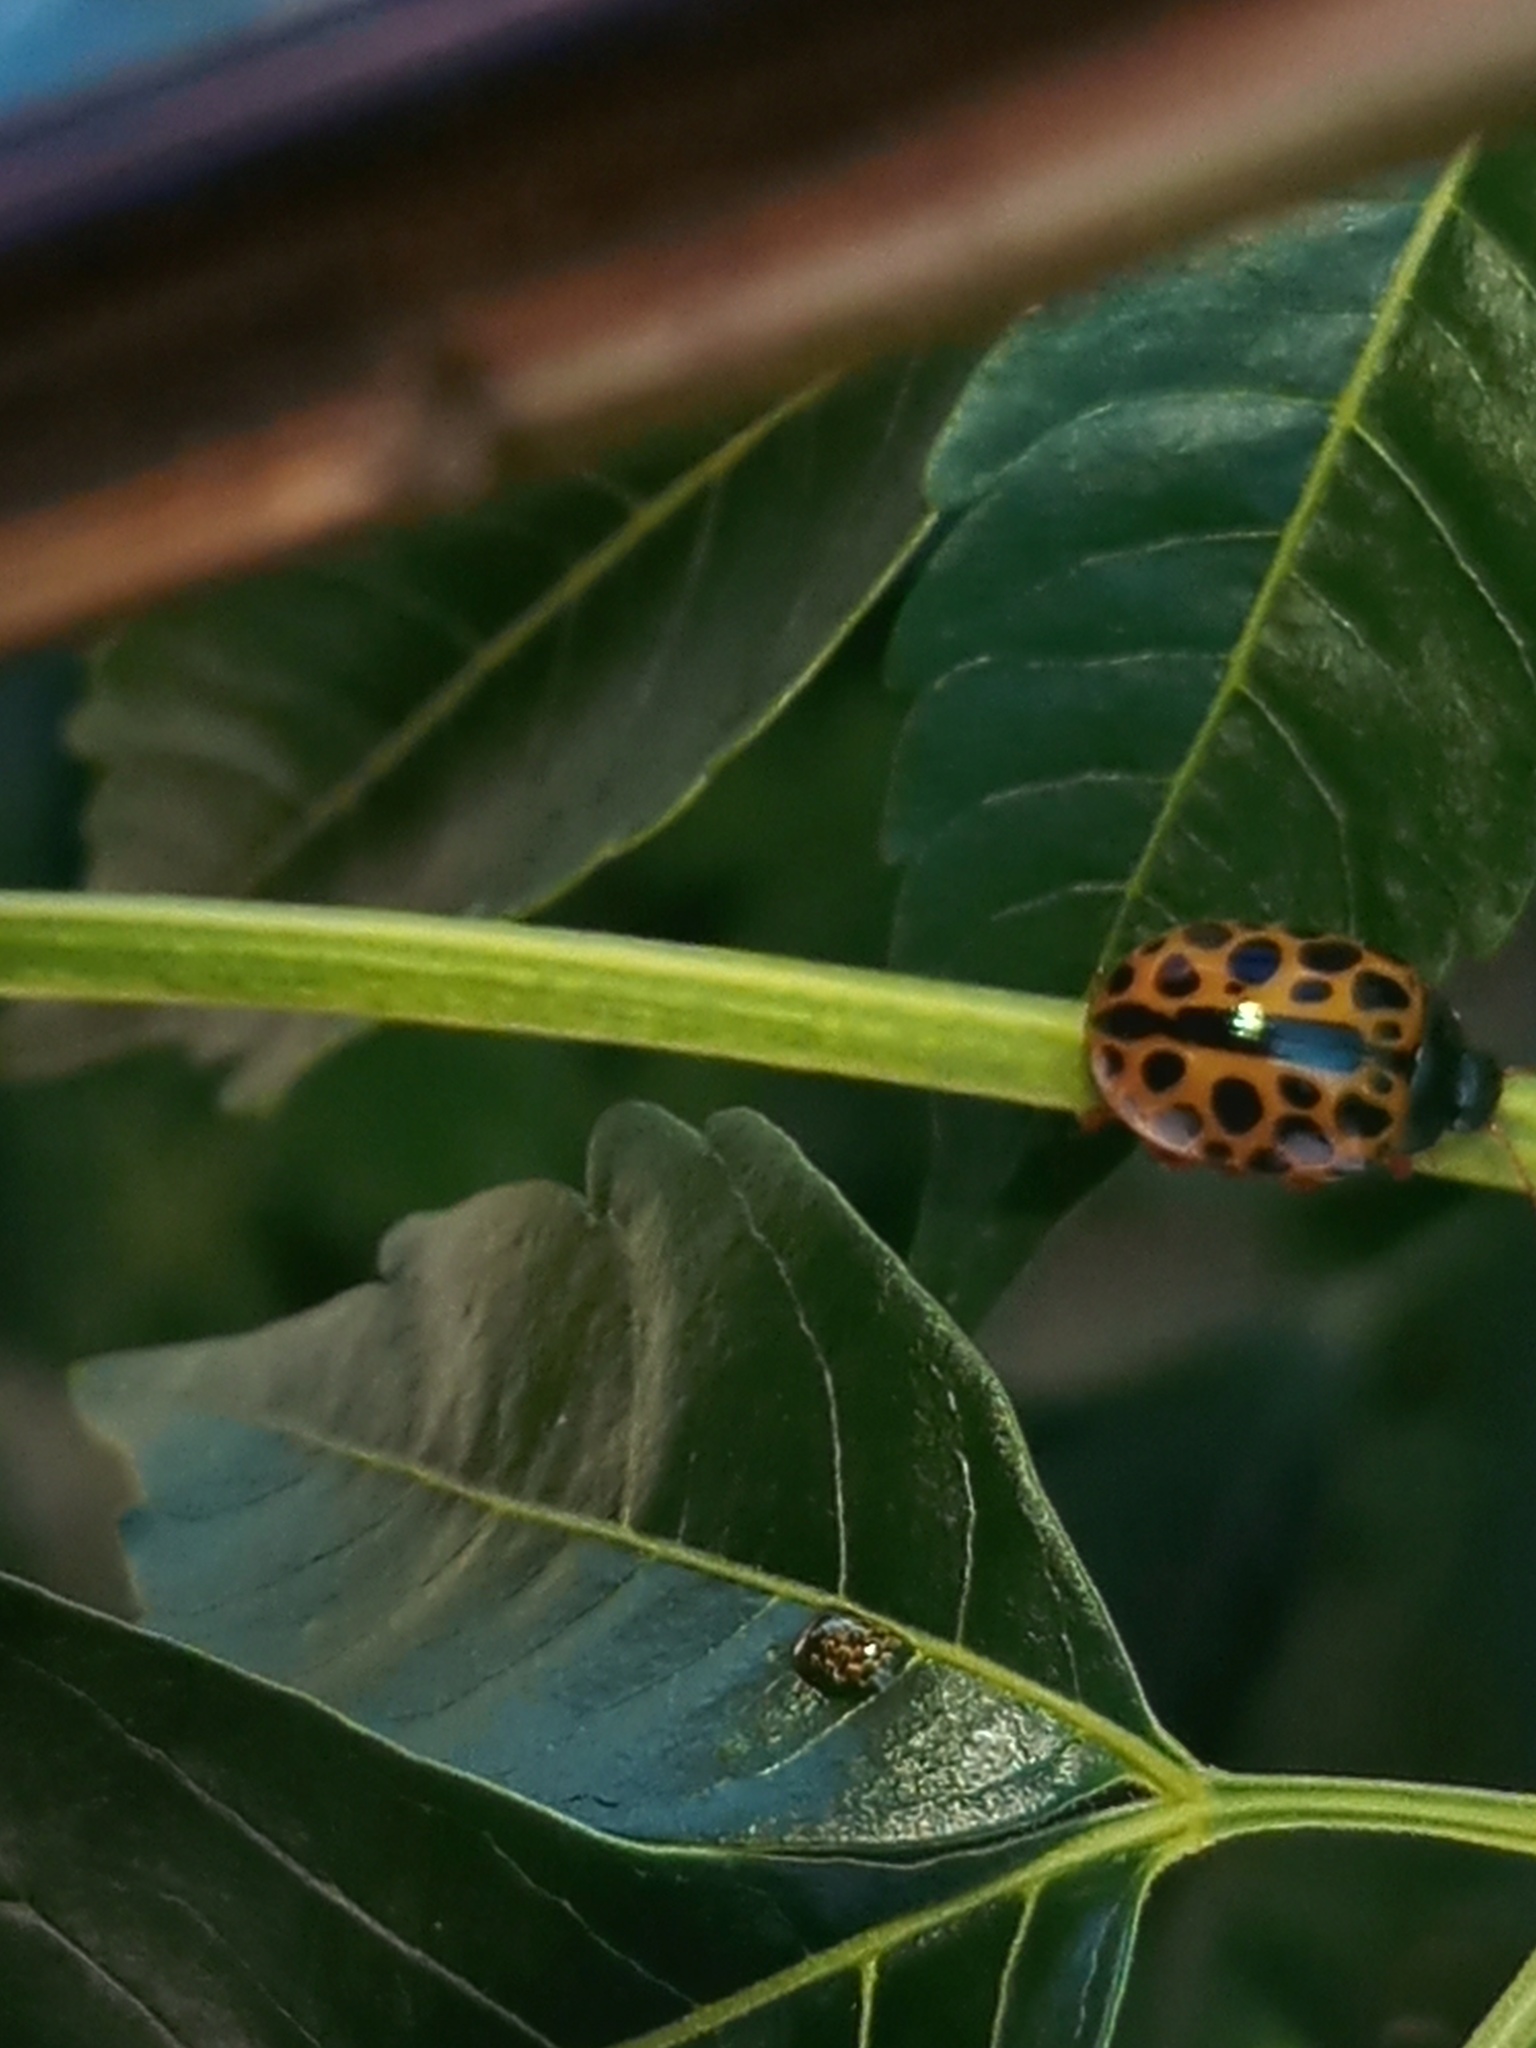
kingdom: Animalia
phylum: Arthropoda
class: Insecta
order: Coleoptera
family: Chrysomelidae
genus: Calligrapha
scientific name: Calligrapha polyspila
